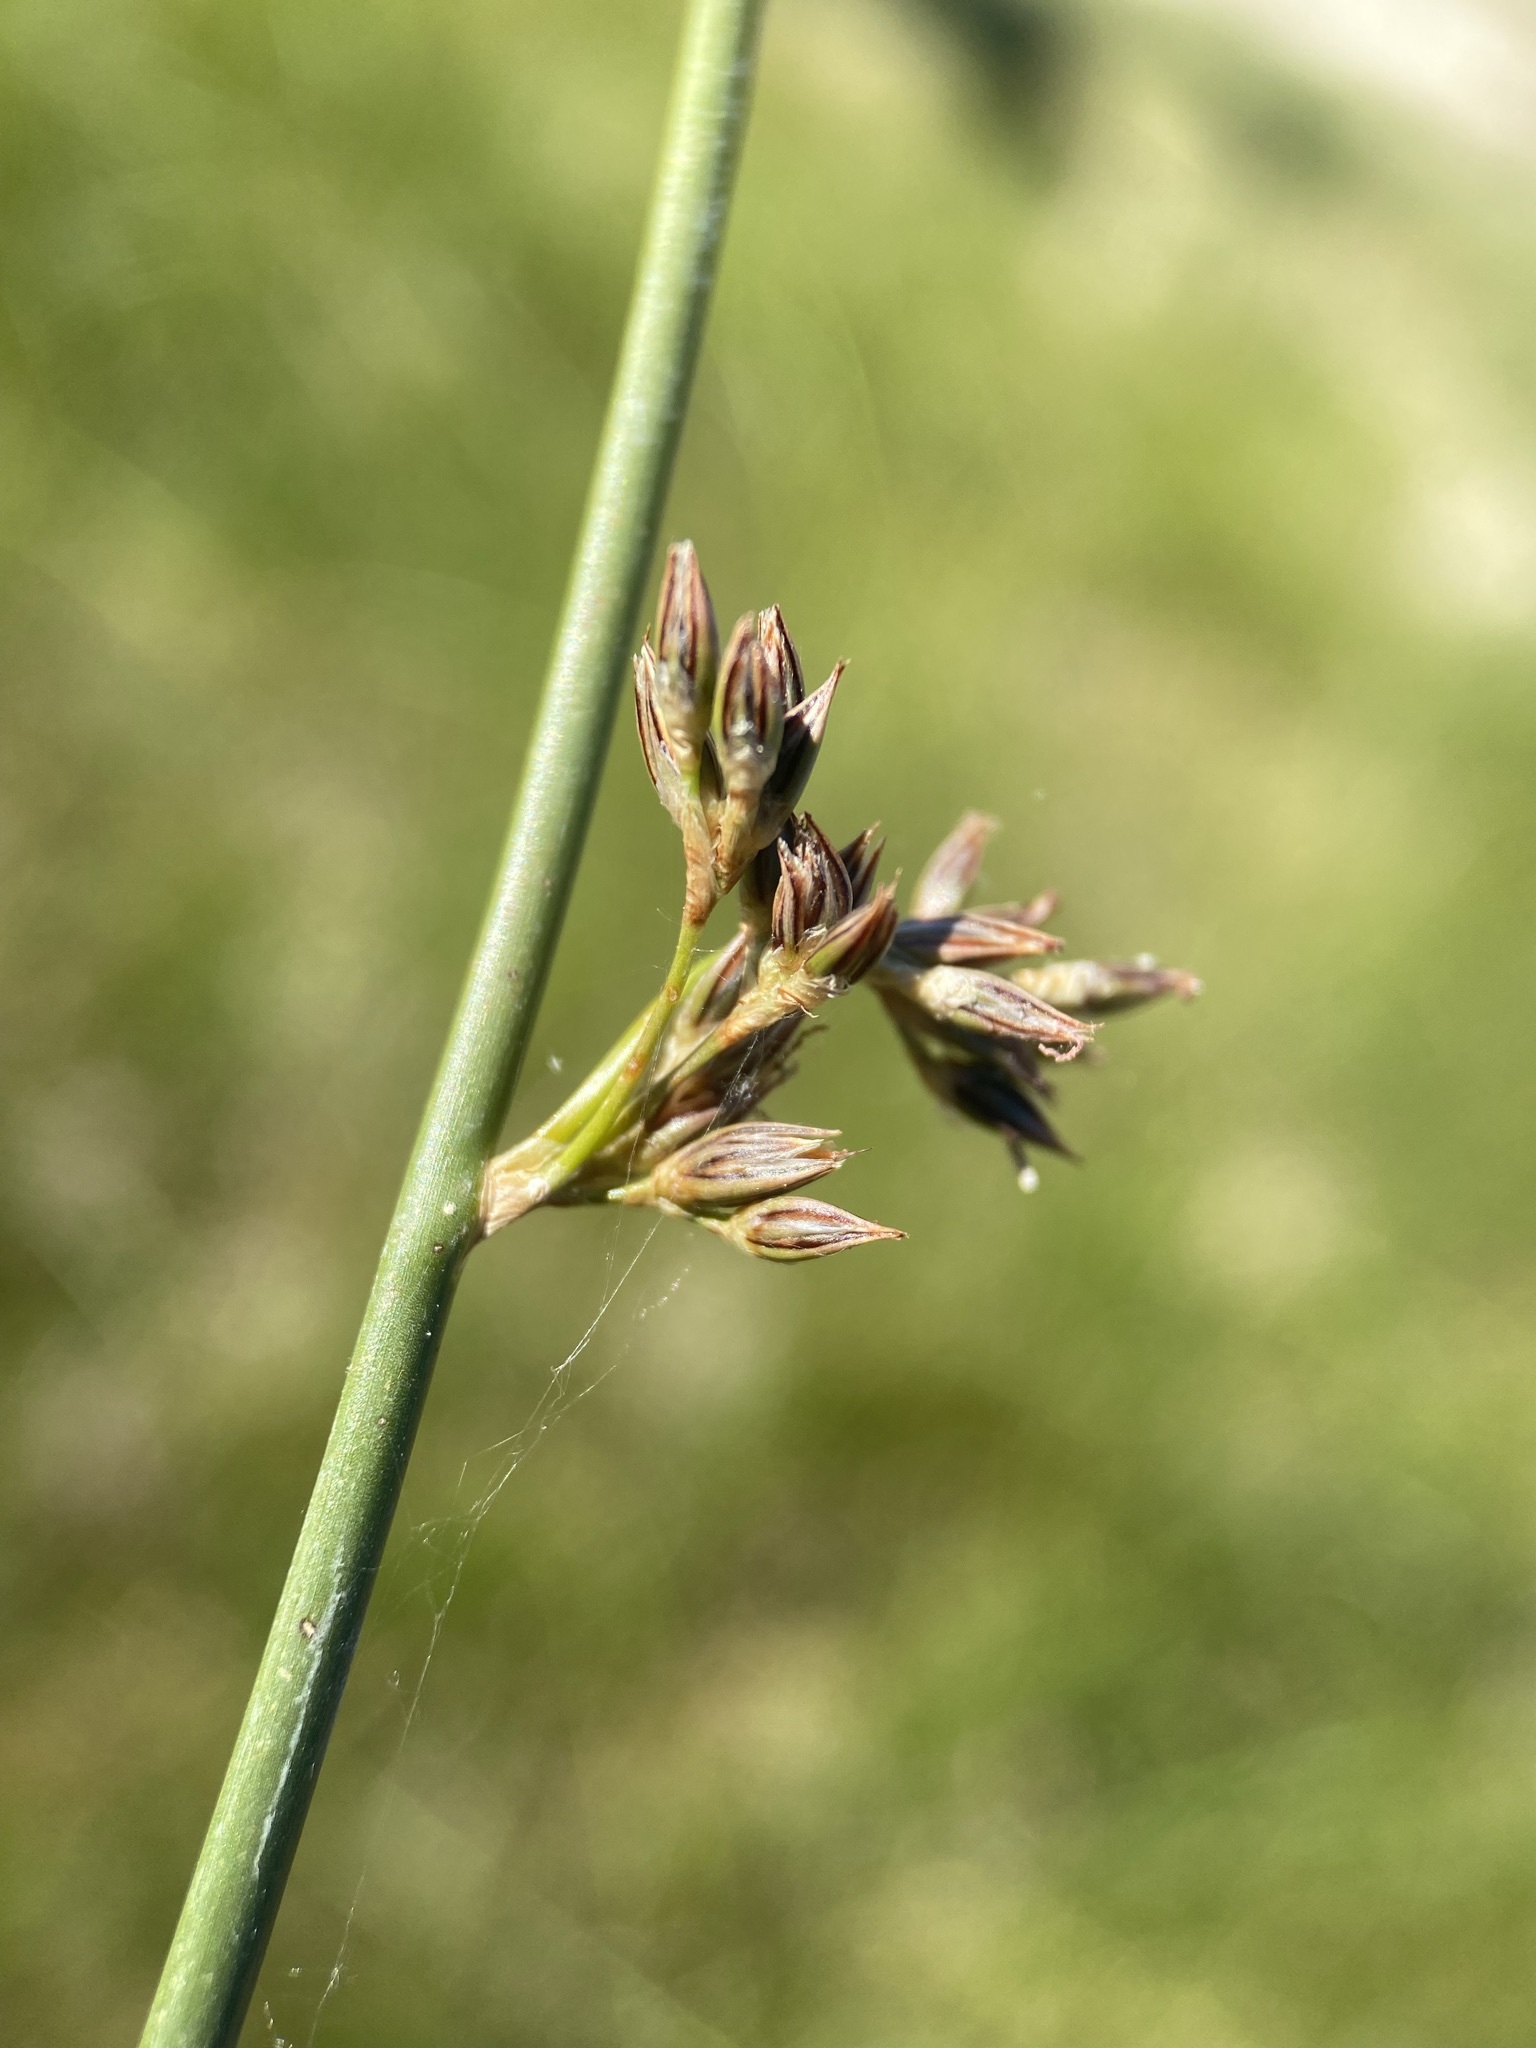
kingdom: Plantae
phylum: Tracheophyta
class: Liliopsida
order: Poales
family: Juncaceae
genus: Juncus
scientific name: Juncus balticus
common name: Baltic rush
